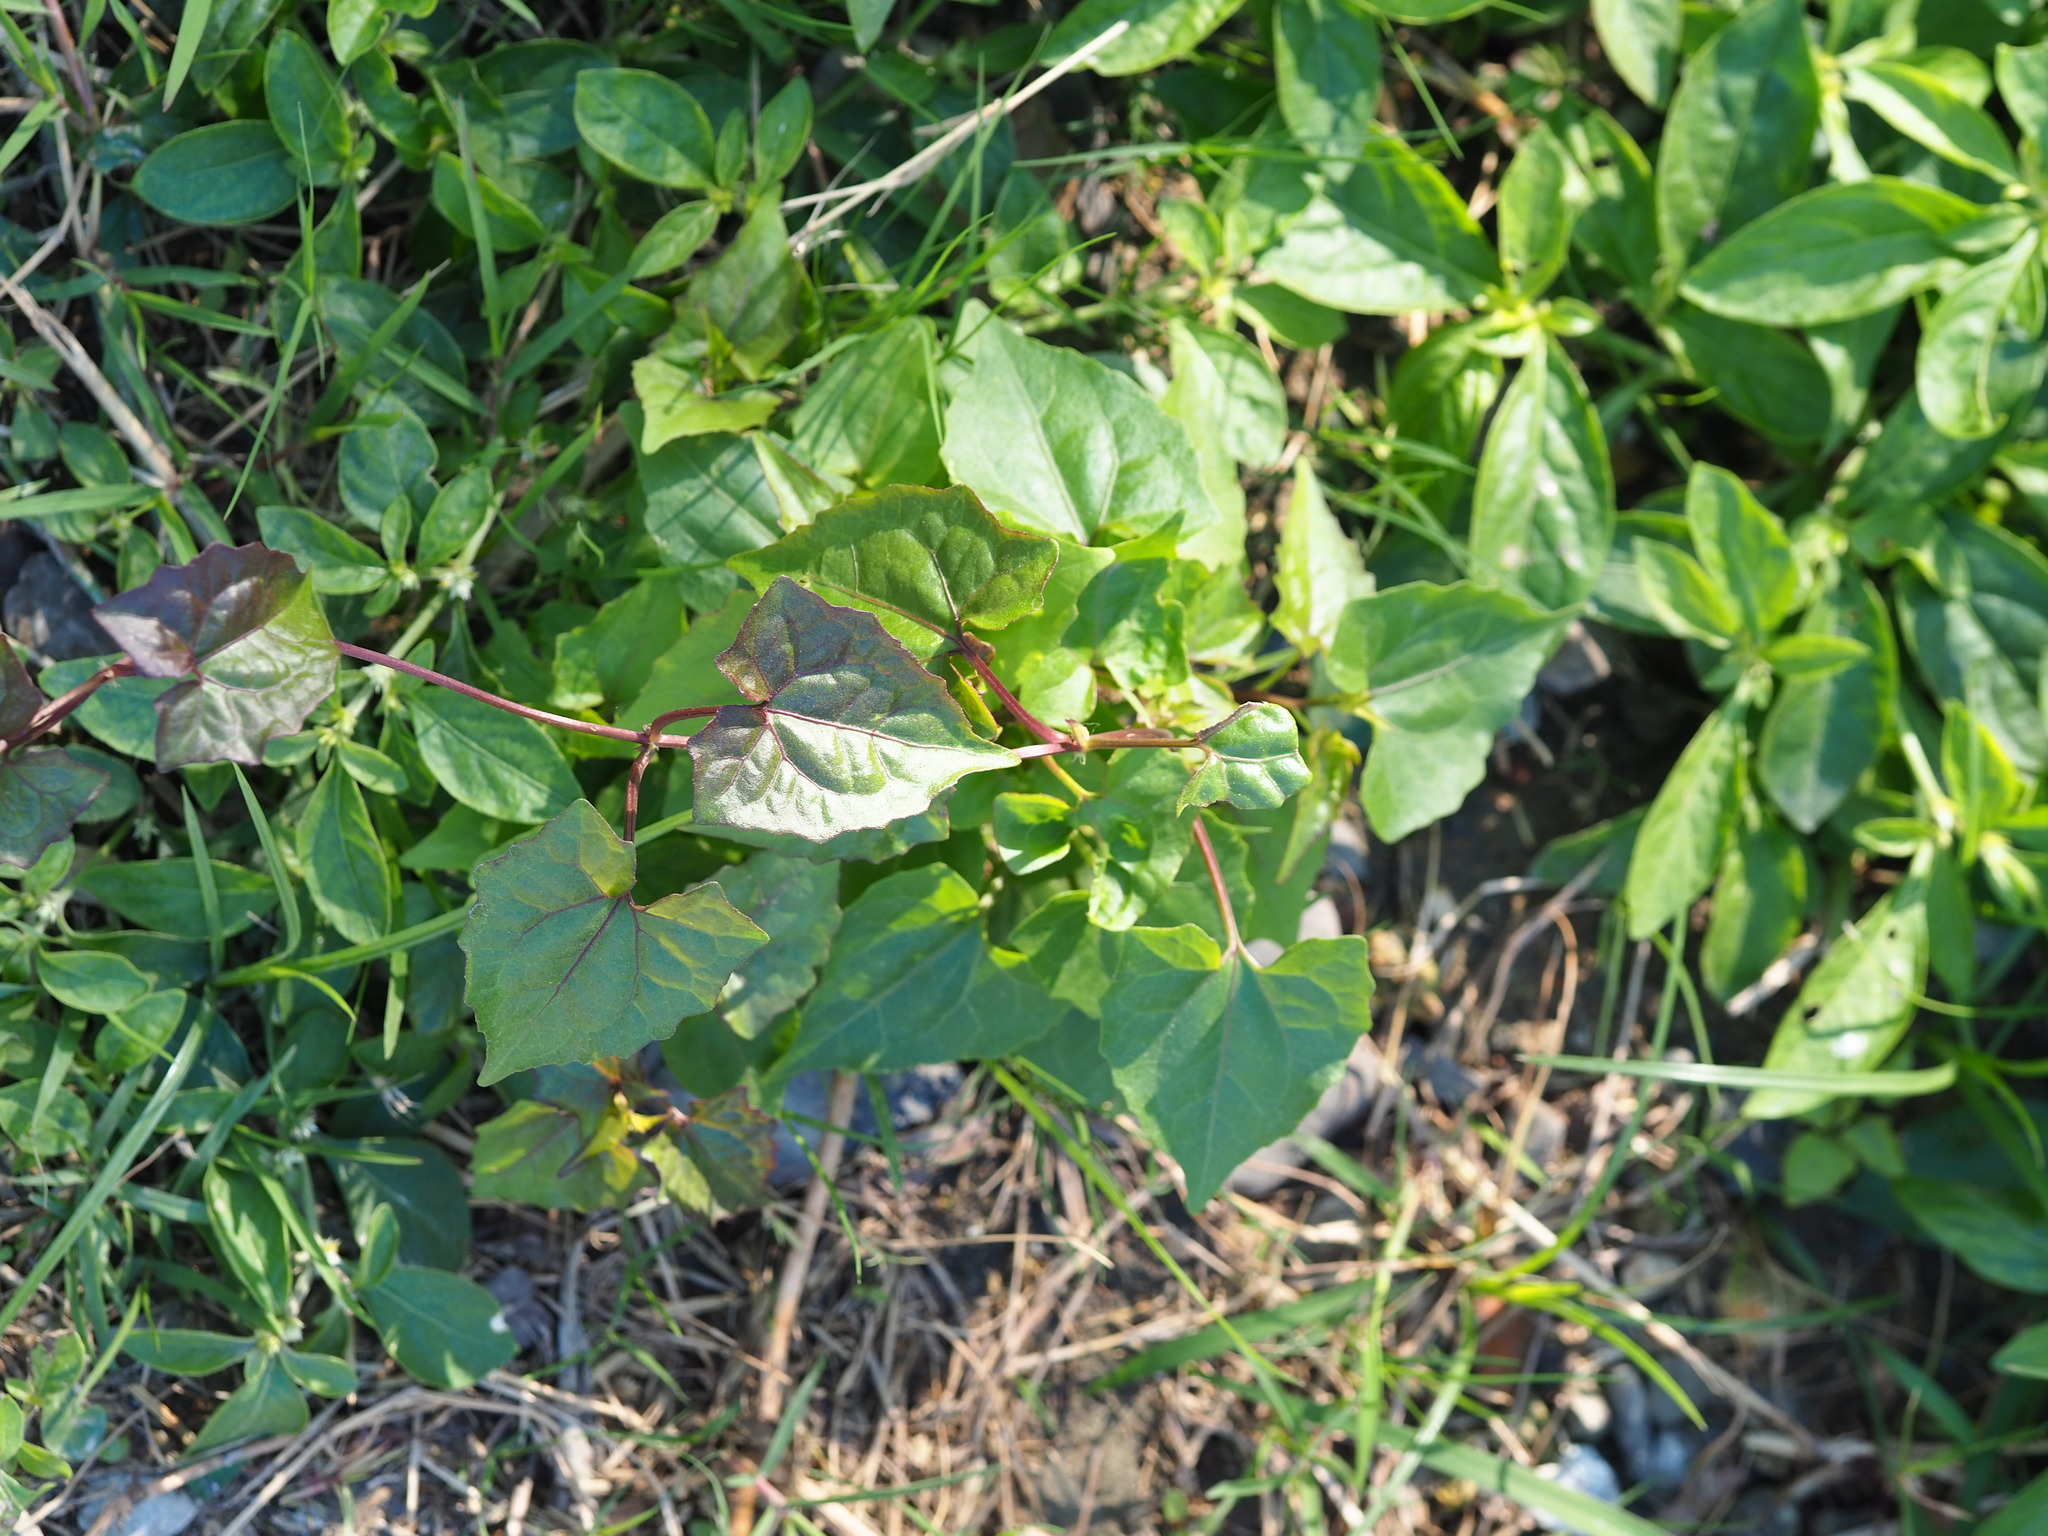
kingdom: Plantae
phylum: Tracheophyta
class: Magnoliopsida
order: Asterales
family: Asteraceae
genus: Mikania
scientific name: Mikania micrantha
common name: Mile-a-minute
